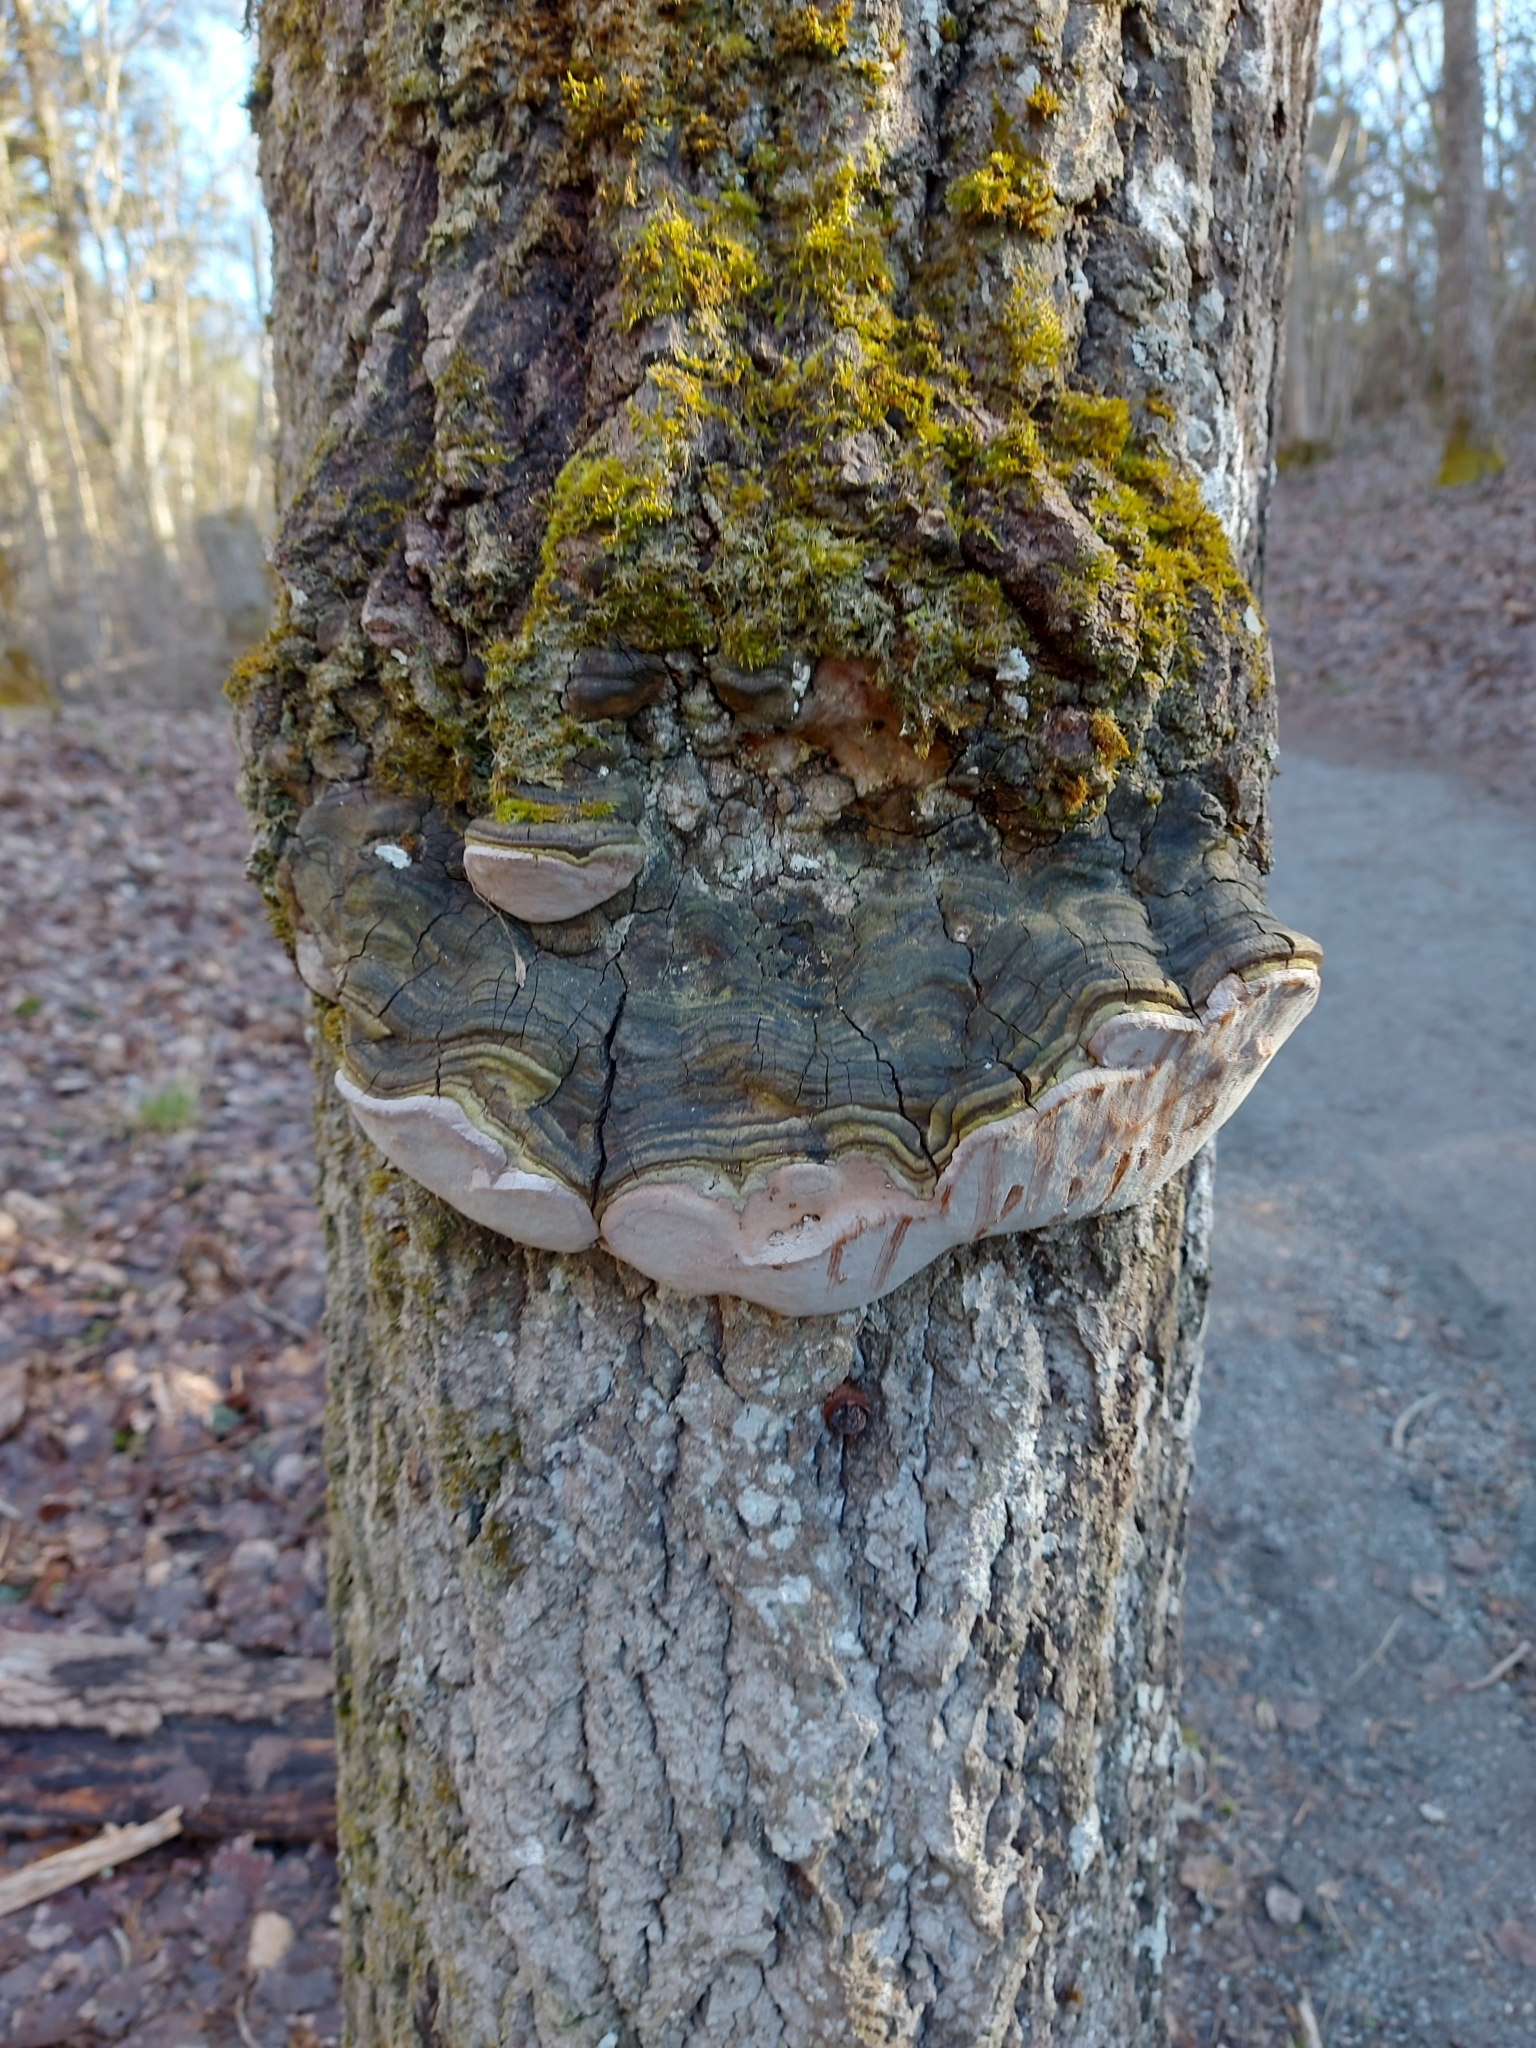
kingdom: Fungi
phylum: Basidiomycota
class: Agaricomycetes
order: Hymenochaetales
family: Hymenochaetaceae
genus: Phellinus
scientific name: Phellinus tremulae
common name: Aspen bracket
